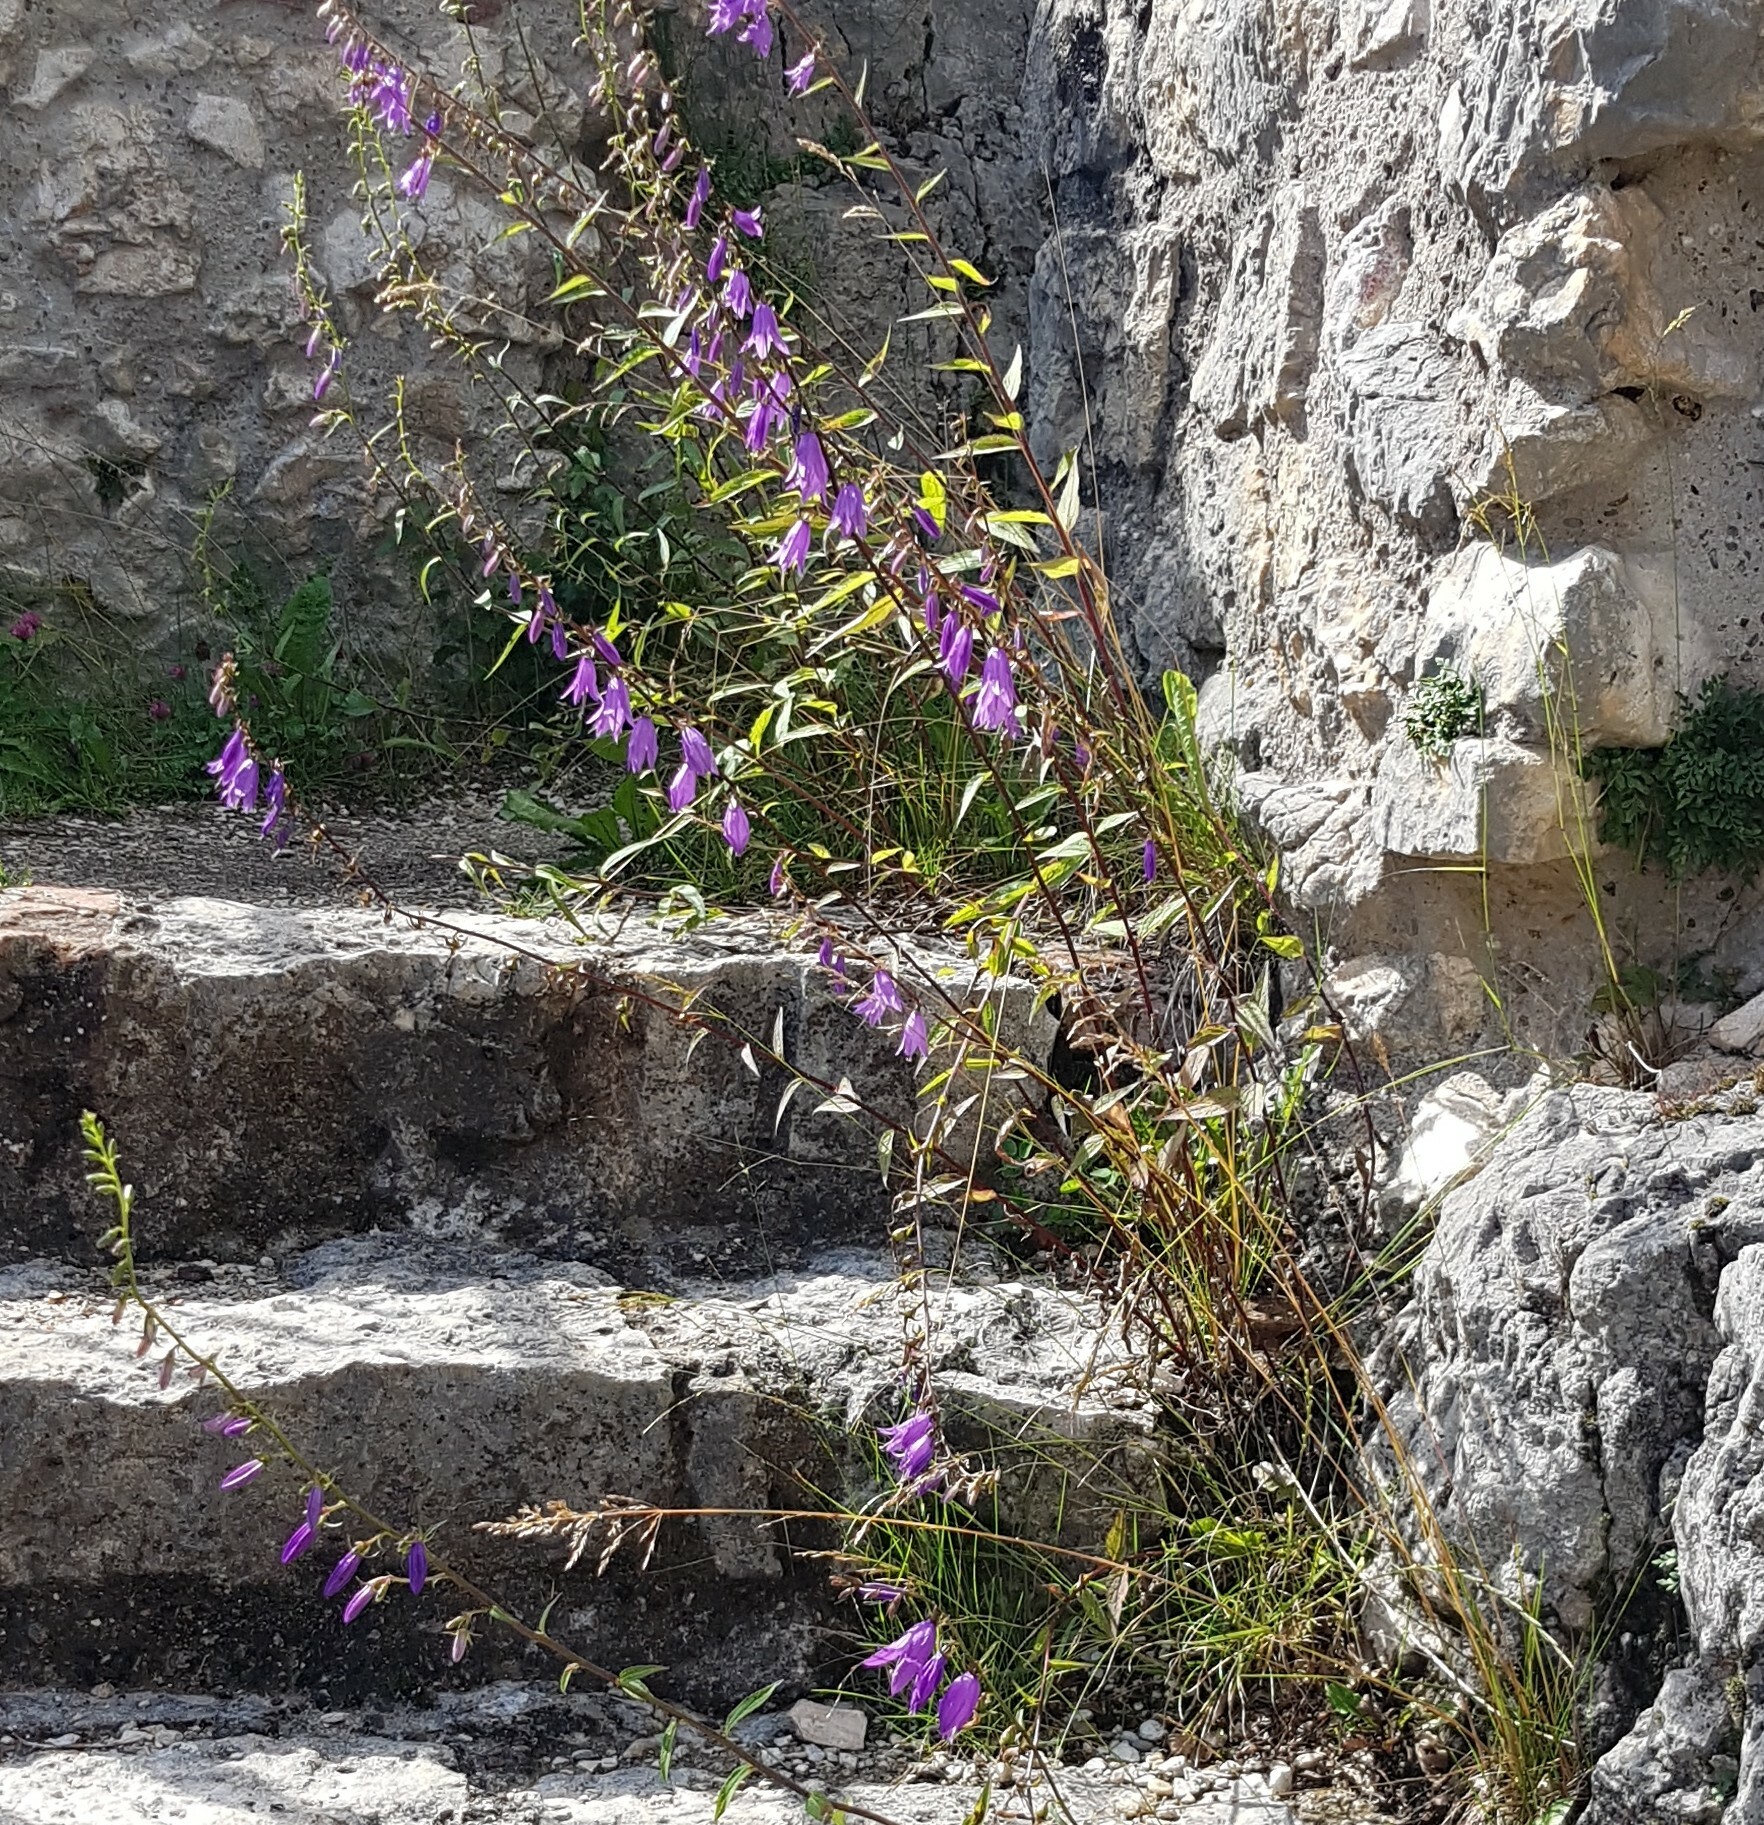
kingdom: Plantae
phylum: Tracheophyta
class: Magnoliopsida
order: Asterales
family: Campanulaceae
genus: Campanula
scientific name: Campanula rapunculoides
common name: Creeping bellflower
